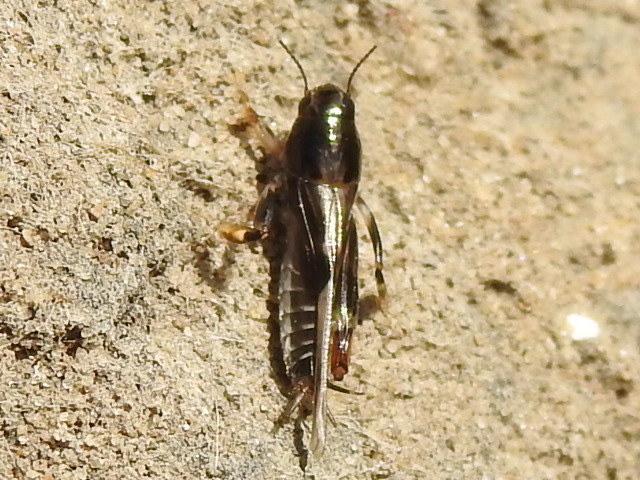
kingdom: Animalia
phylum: Arthropoda
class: Insecta
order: Orthoptera
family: Tridactylidae
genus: Neotridactylus
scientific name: Neotridactylus apicialis
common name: Larger pygmy locust
